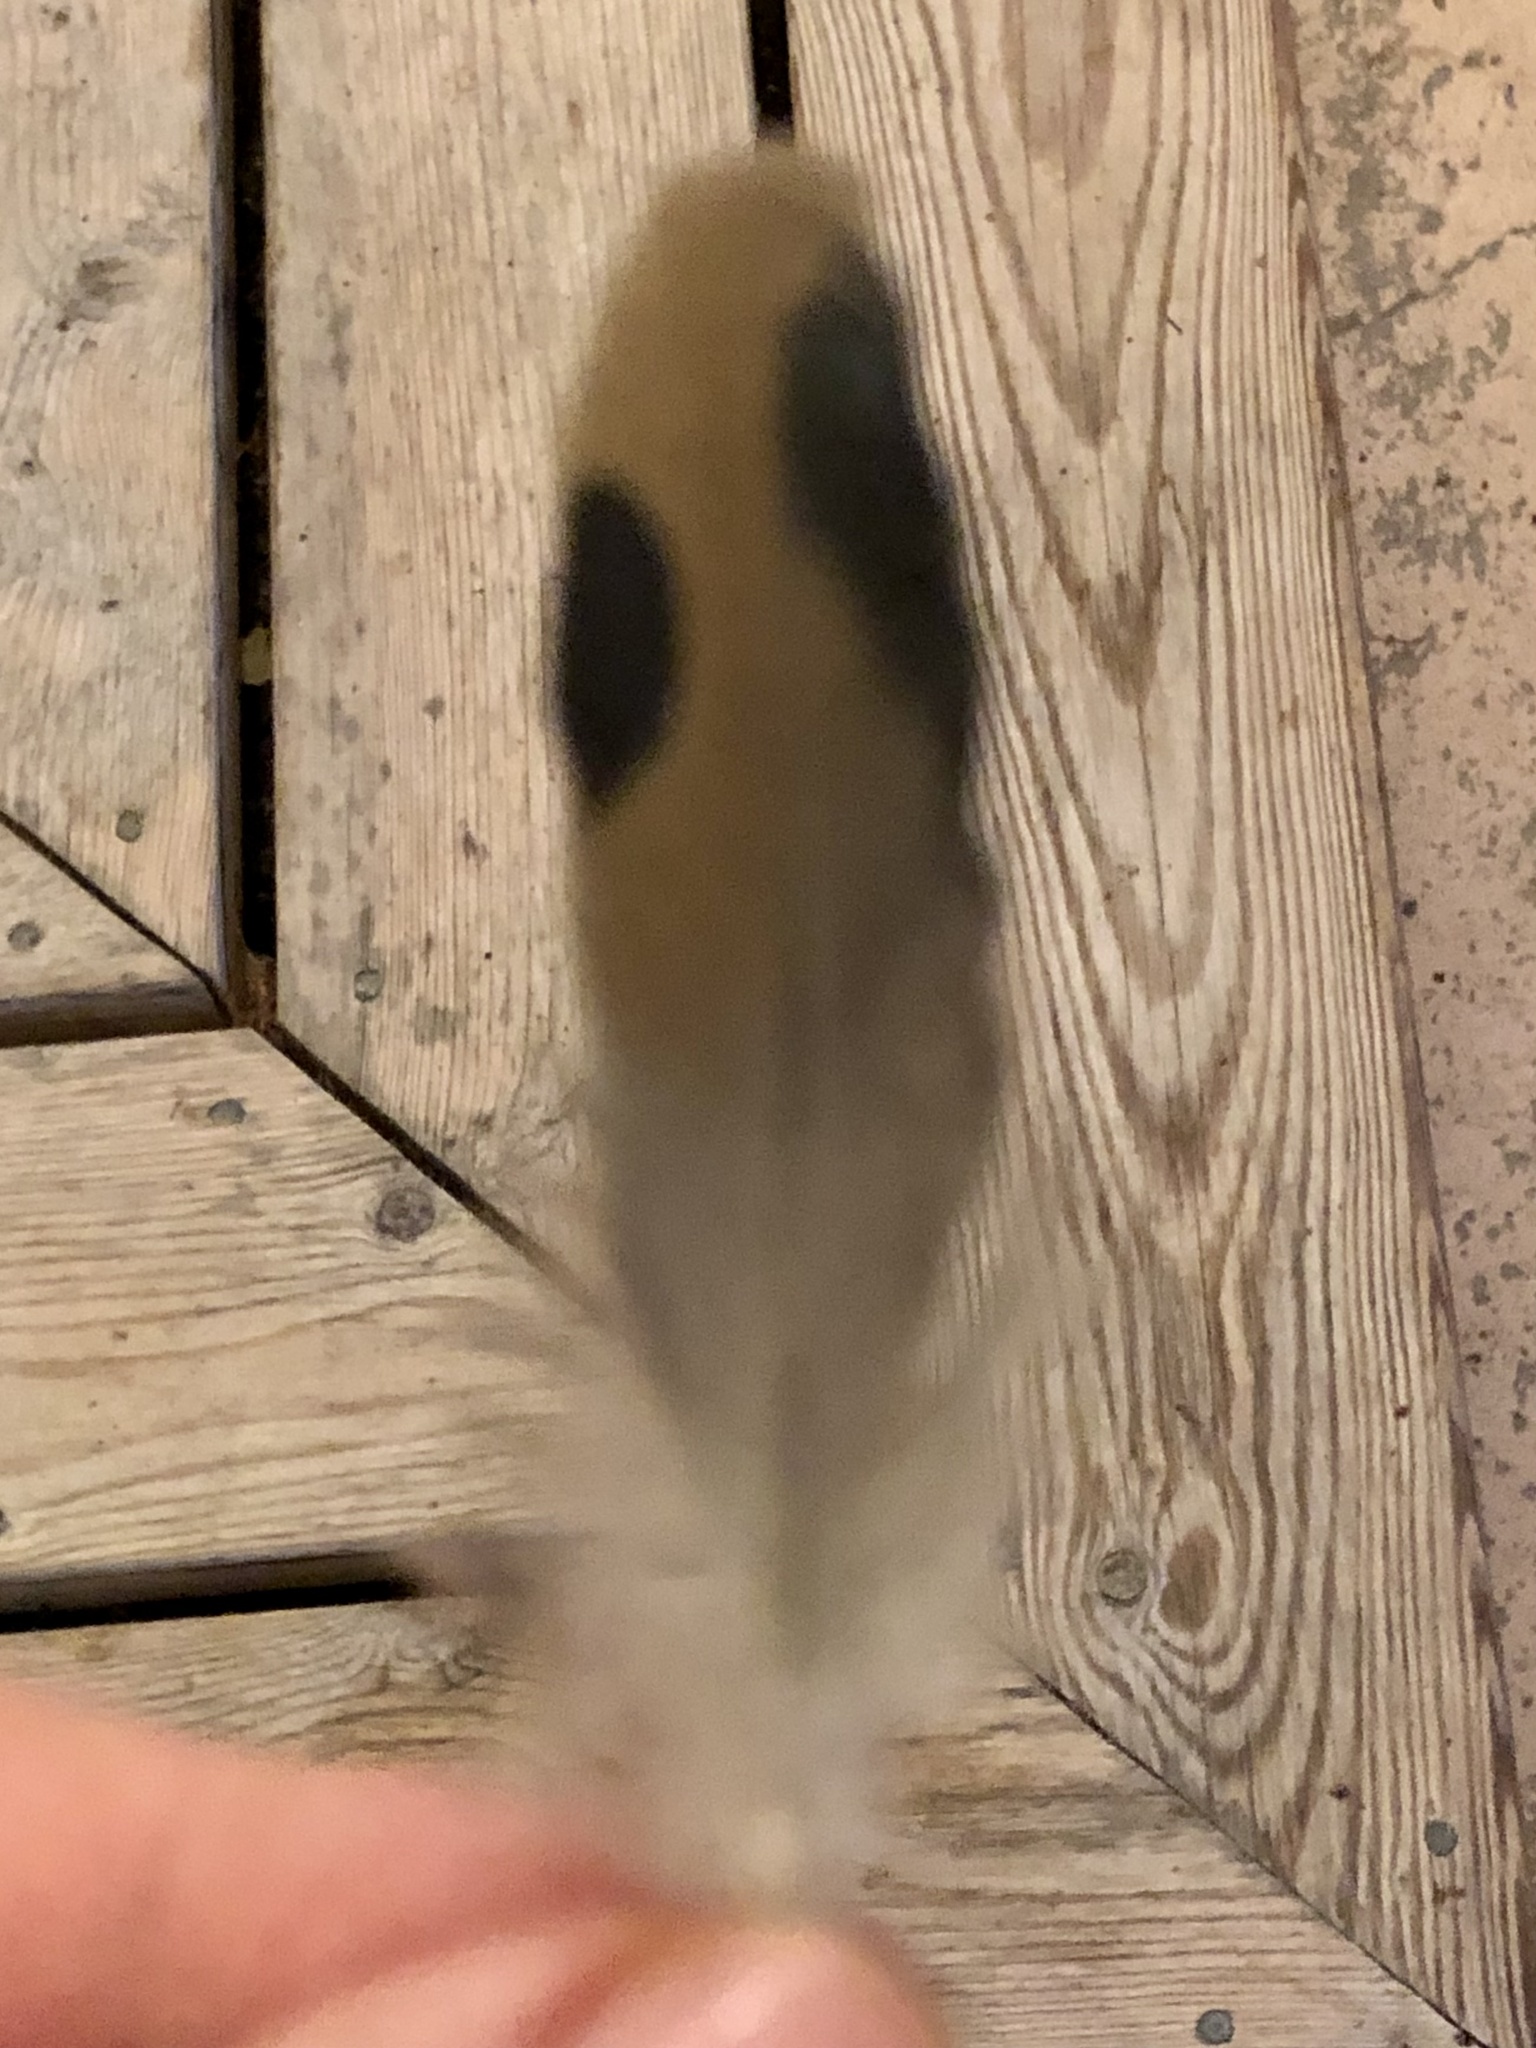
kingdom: Animalia
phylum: Chordata
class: Aves
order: Columbiformes
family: Columbidae
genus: Zenaida
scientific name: Zenaida macroura
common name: Mourning dove
